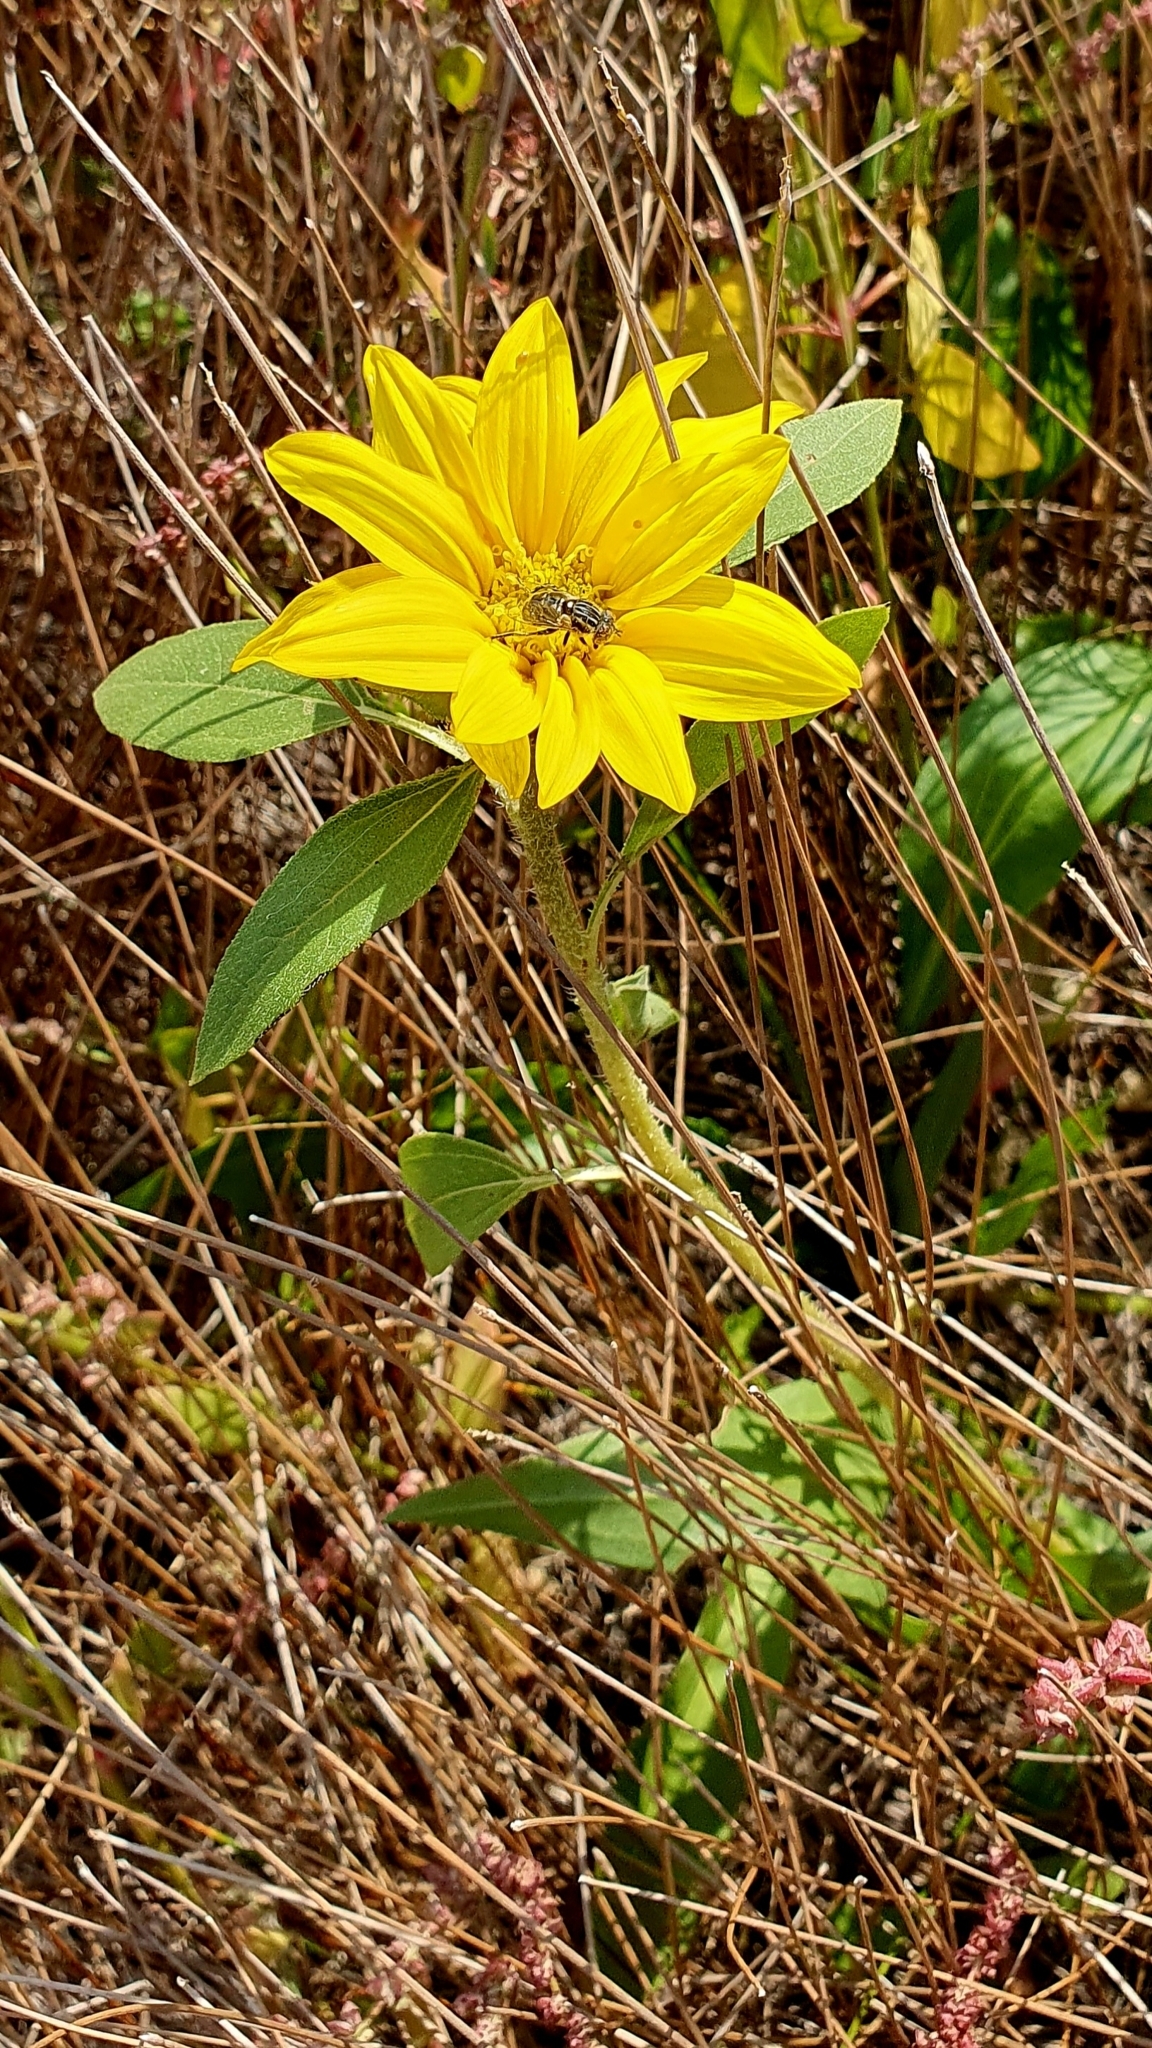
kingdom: Plantae
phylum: Tracheophyta
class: Magnoliopsida
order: Asterales
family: Asteraceae
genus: Helianthus
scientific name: Helianthus annuus
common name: Sunflower
